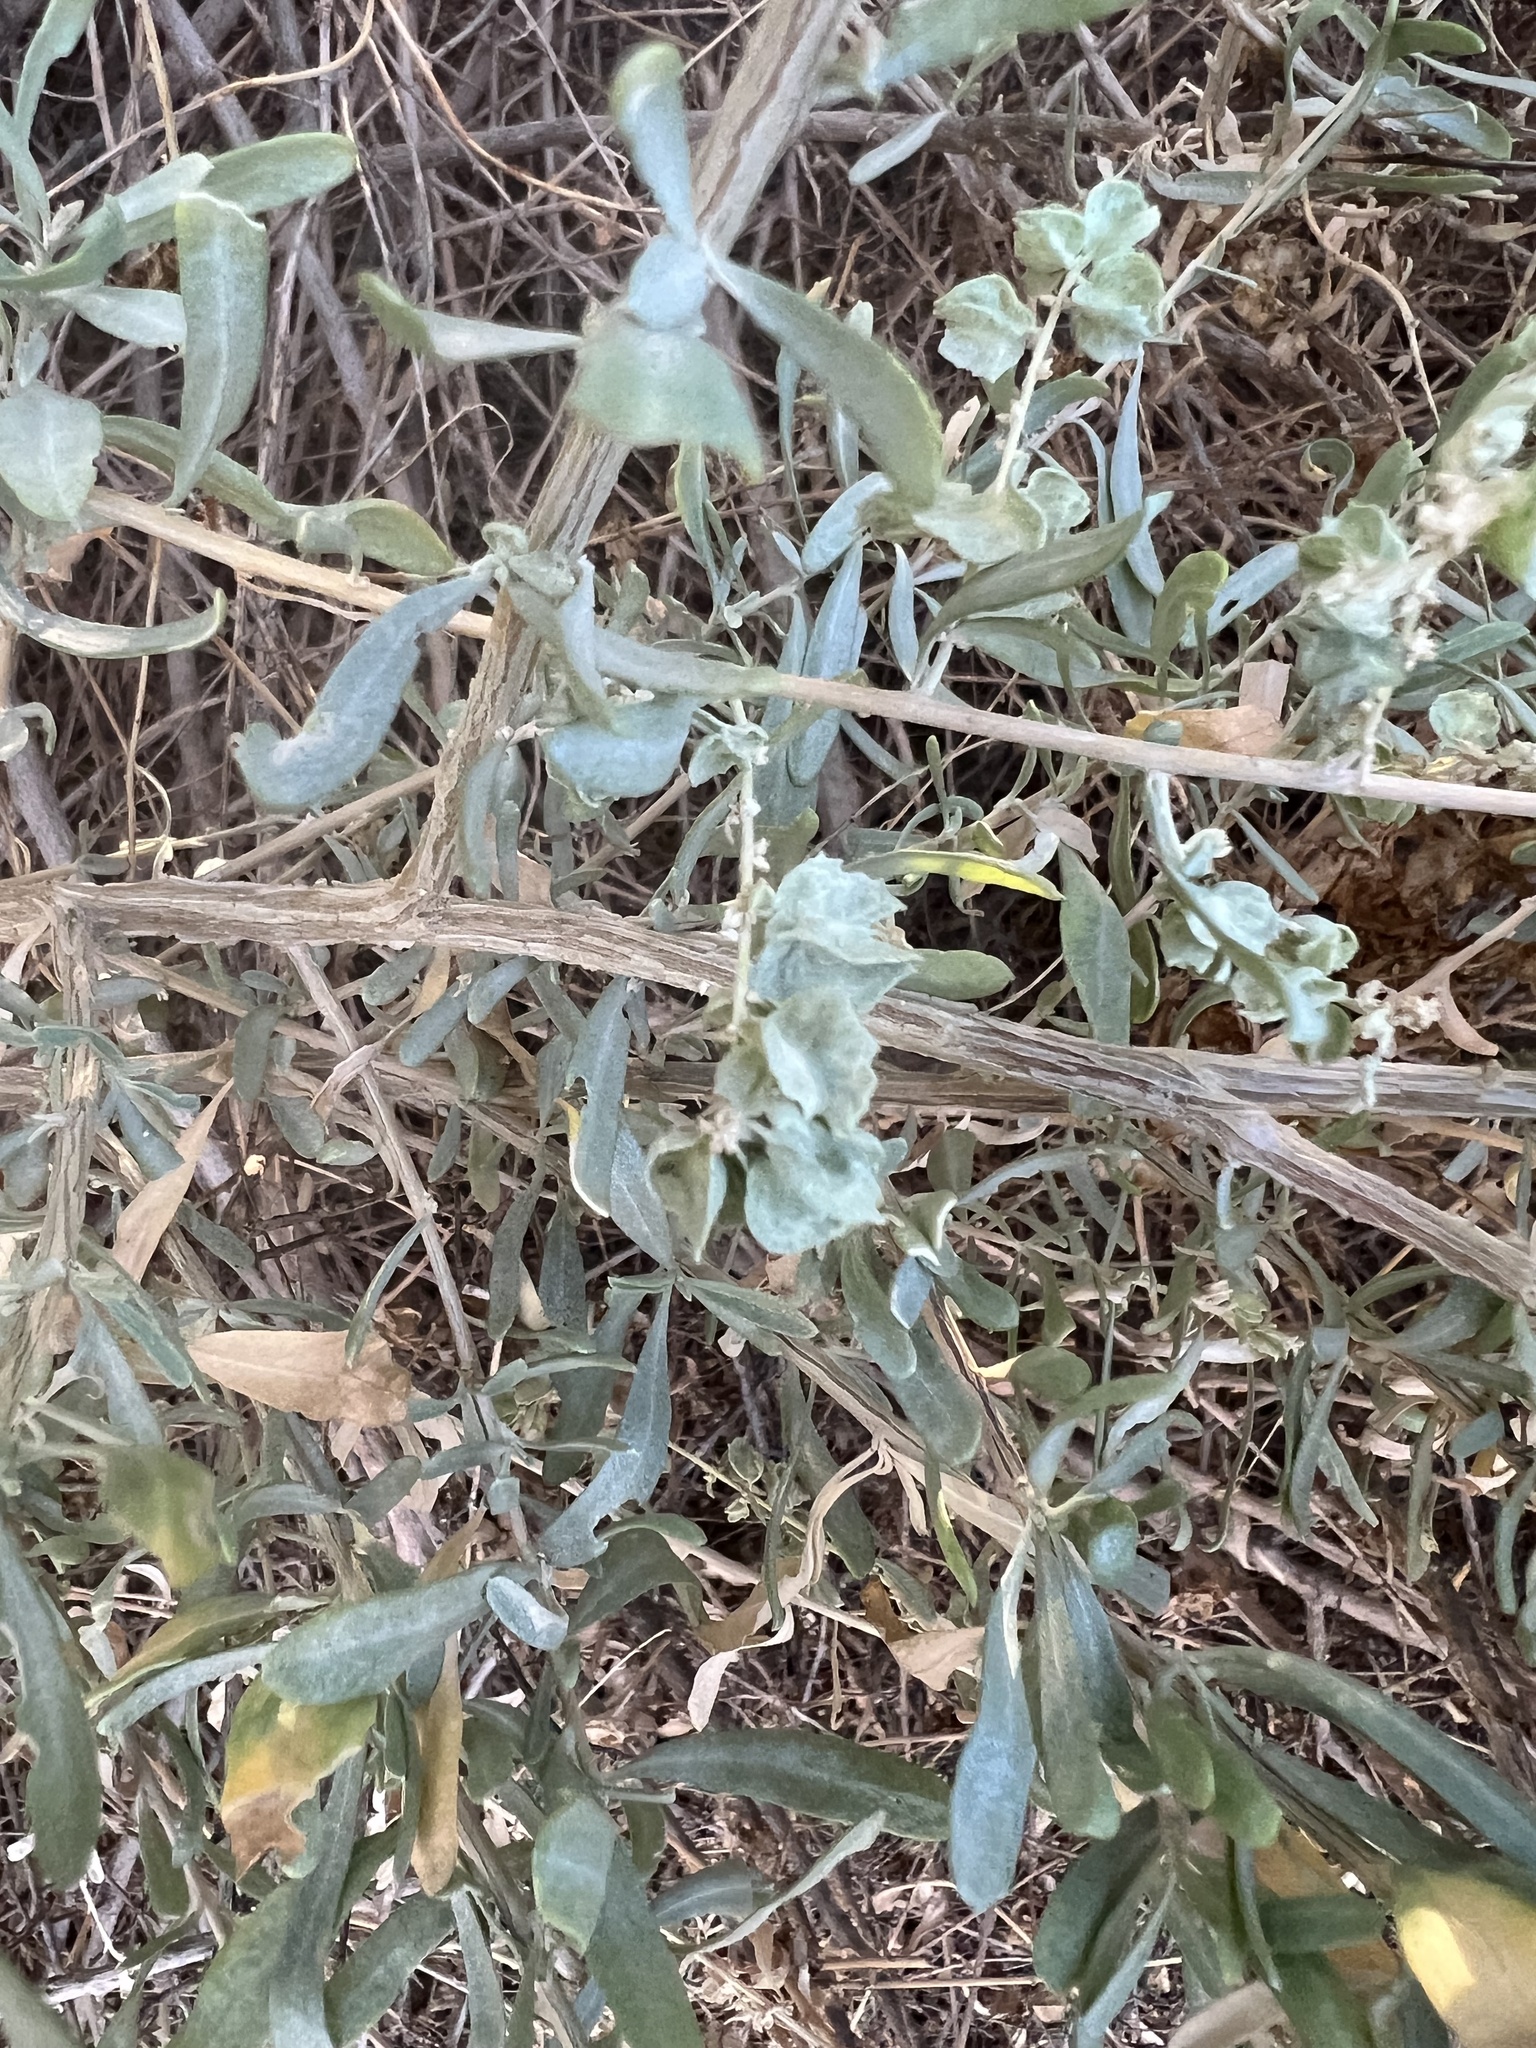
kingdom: Plantae
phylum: Tracheophyta
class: Magnoliopsida
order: Caryophyllales
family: Amaranthaceae
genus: Atriplex
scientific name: Atriplex canescens
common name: Four-wing saltbush
